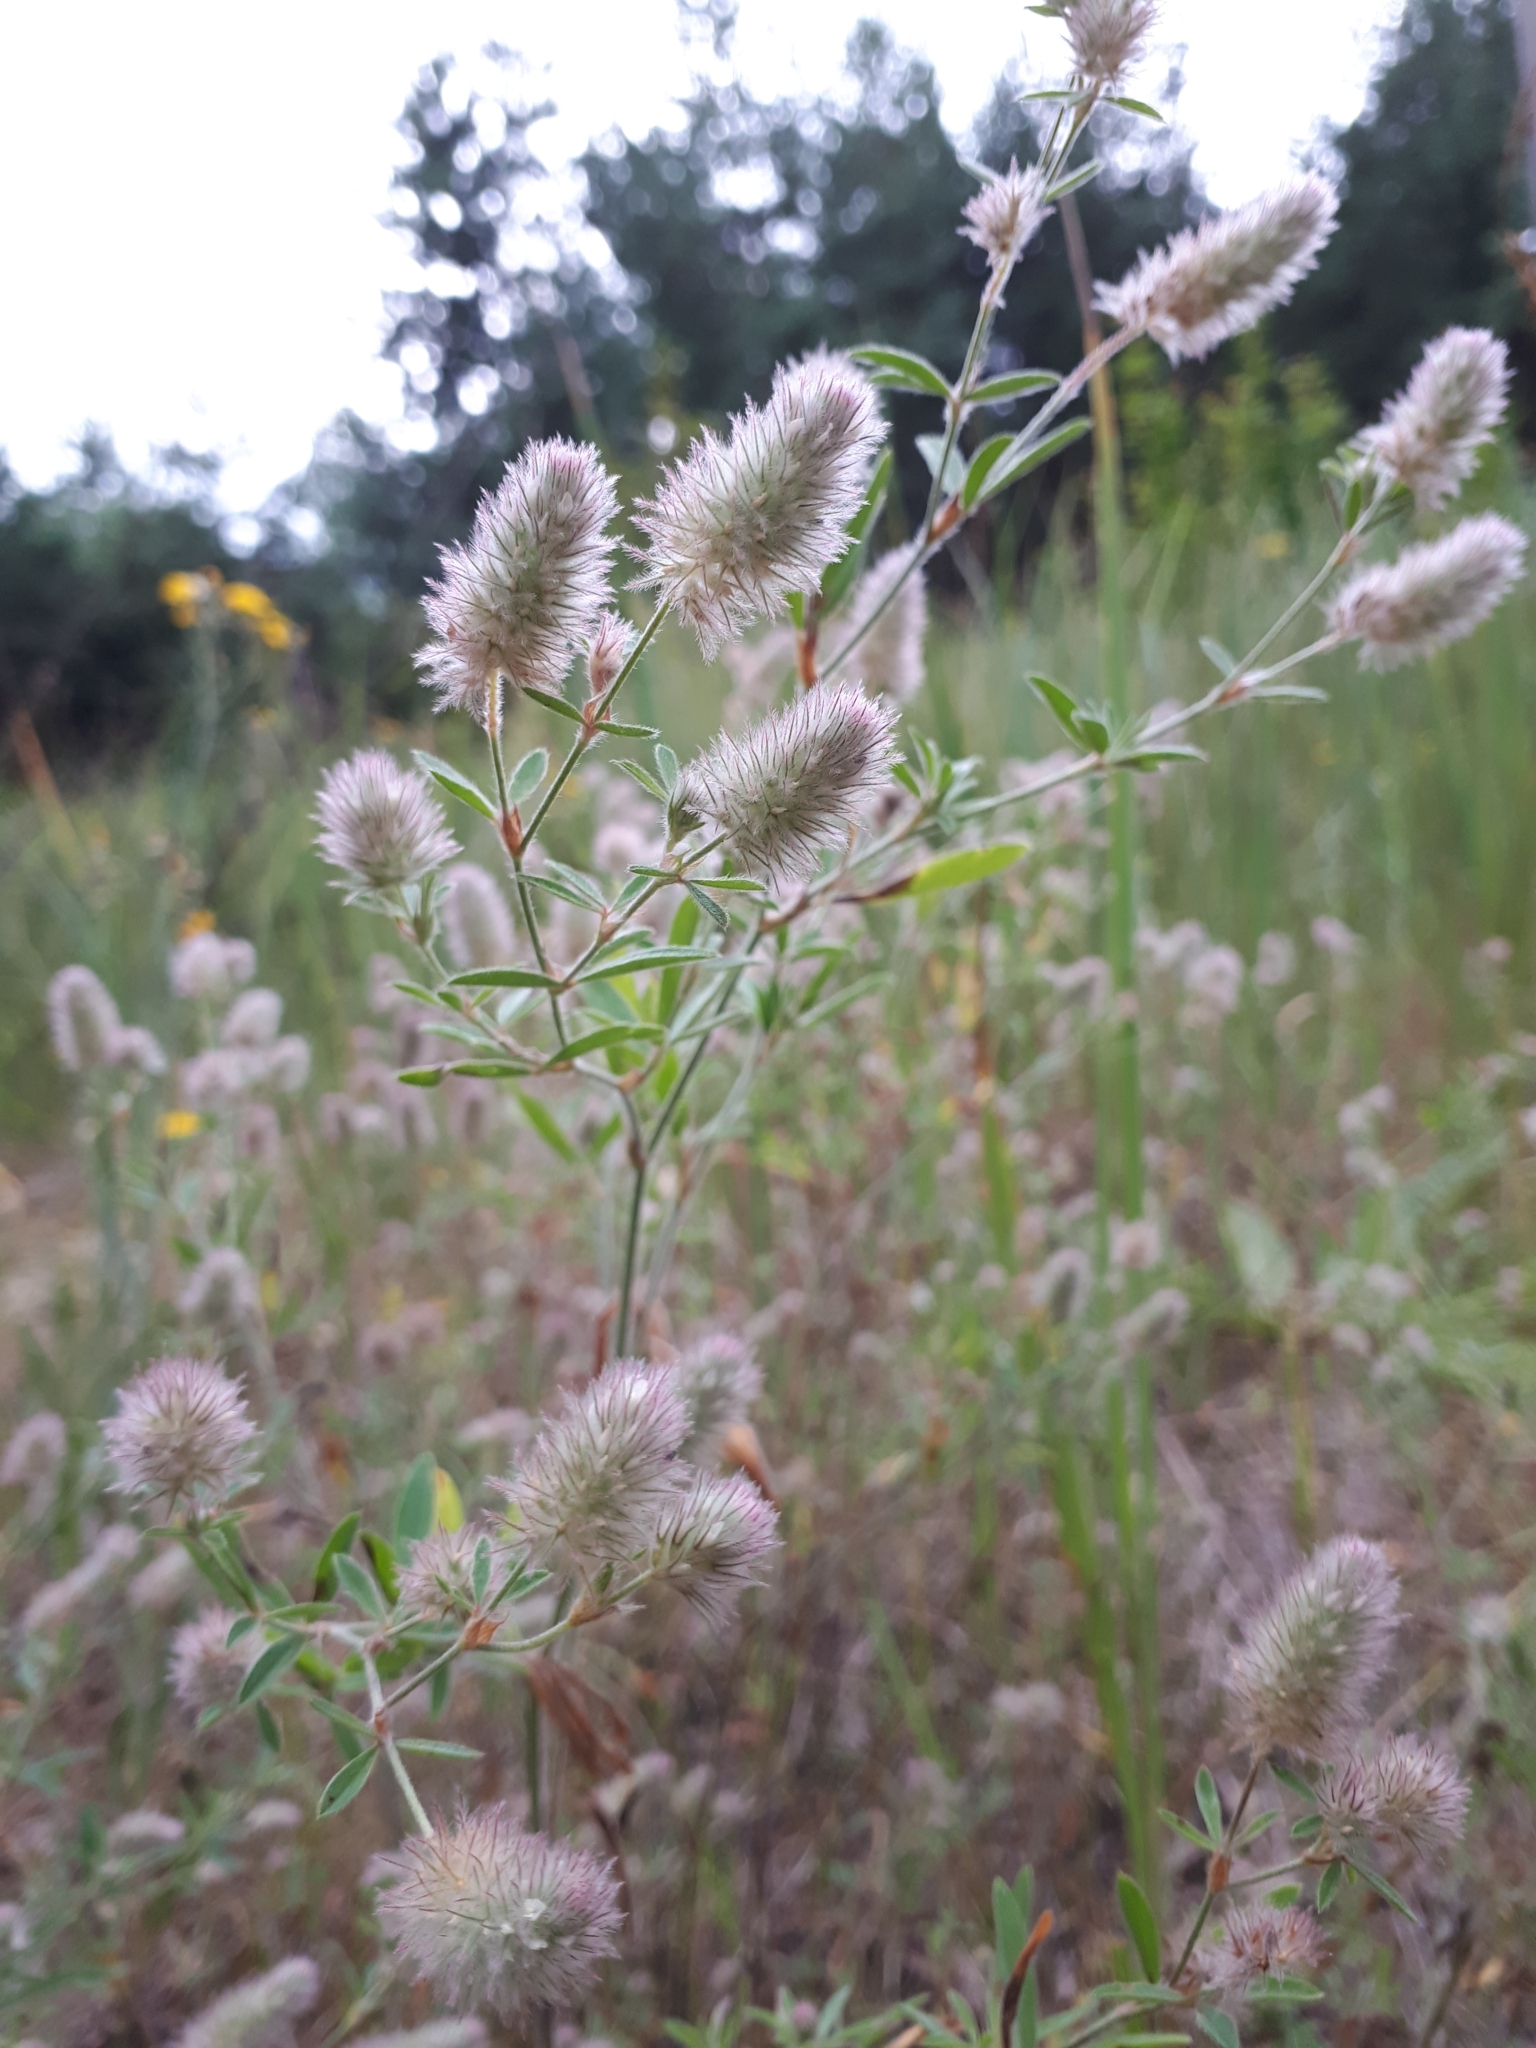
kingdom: Plantae
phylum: Tracheophyta
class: Magnoliopsida
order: Fabales
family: Fabaceae
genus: Trifolium
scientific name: Trifolium arvense
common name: Hare's-foot clover
